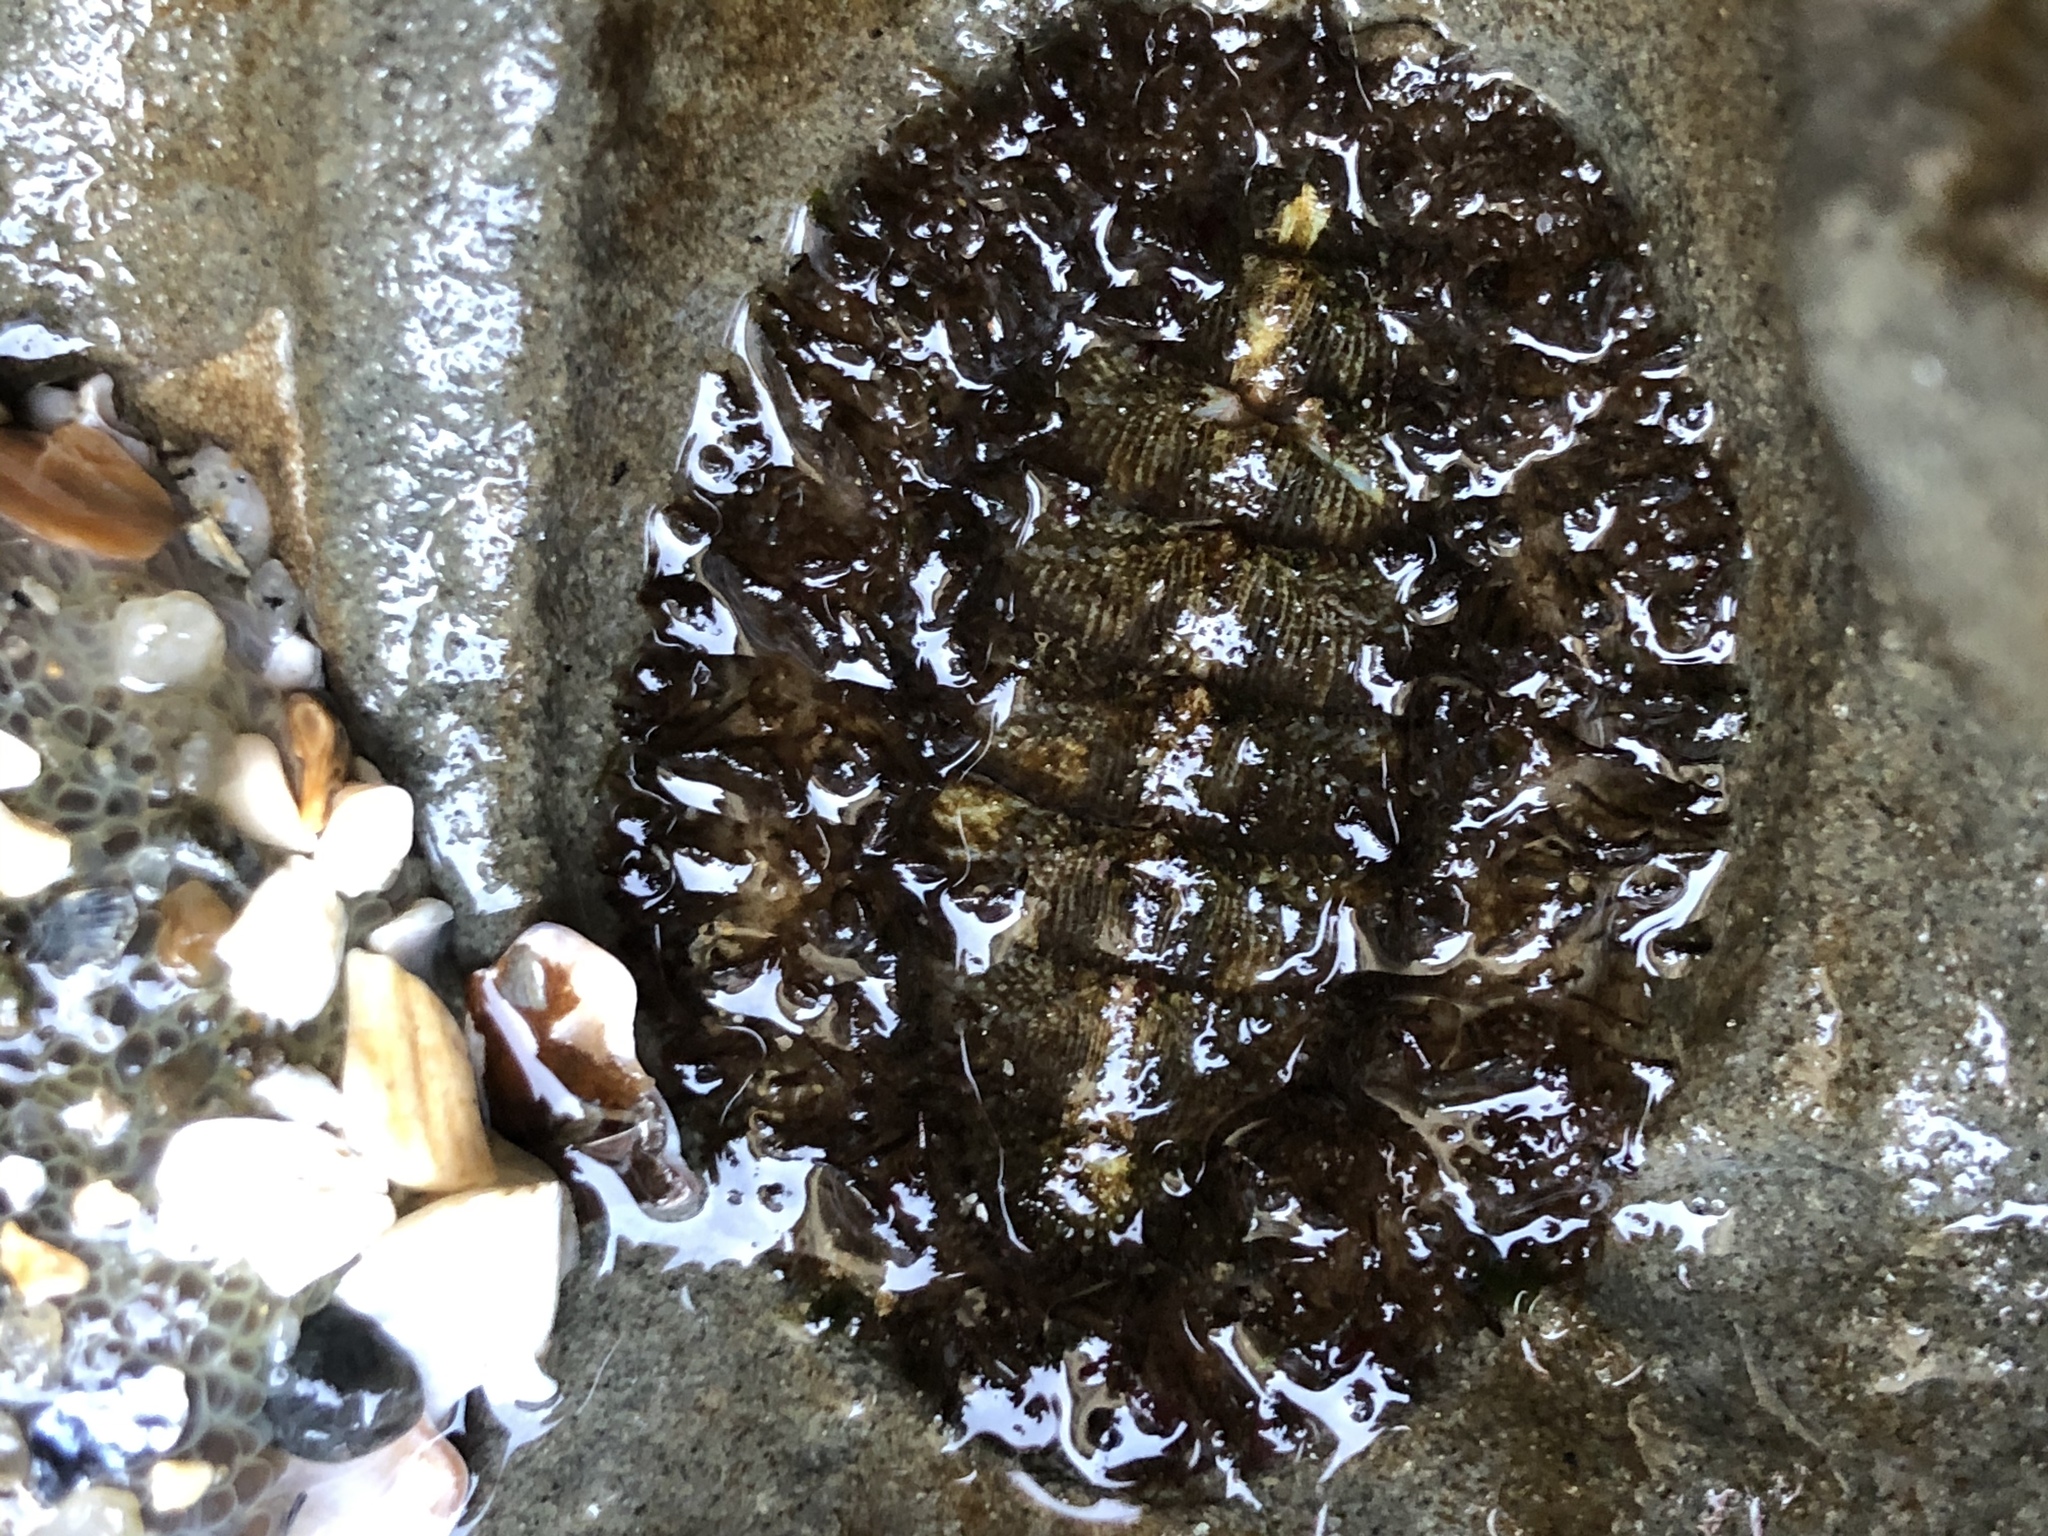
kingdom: Animalia
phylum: Mollusca
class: Polyplacophora
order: Chitonida
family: Mopaliidae
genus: Mopalia
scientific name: Mopalia muscosa
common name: Mossy chiton
